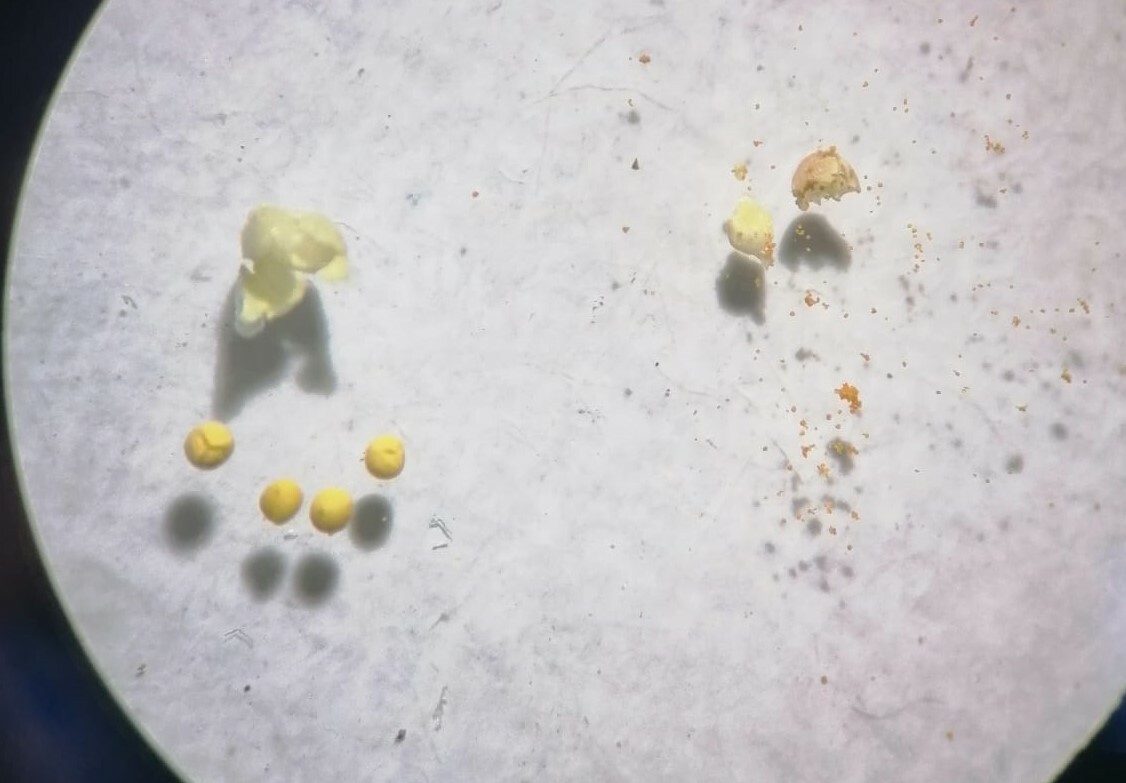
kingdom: Plantae
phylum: Tracheophyta
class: Lycopodiopsida
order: Selaginellales
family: Selaginellaceae
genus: Selaginella
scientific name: Selaginella helvetica
